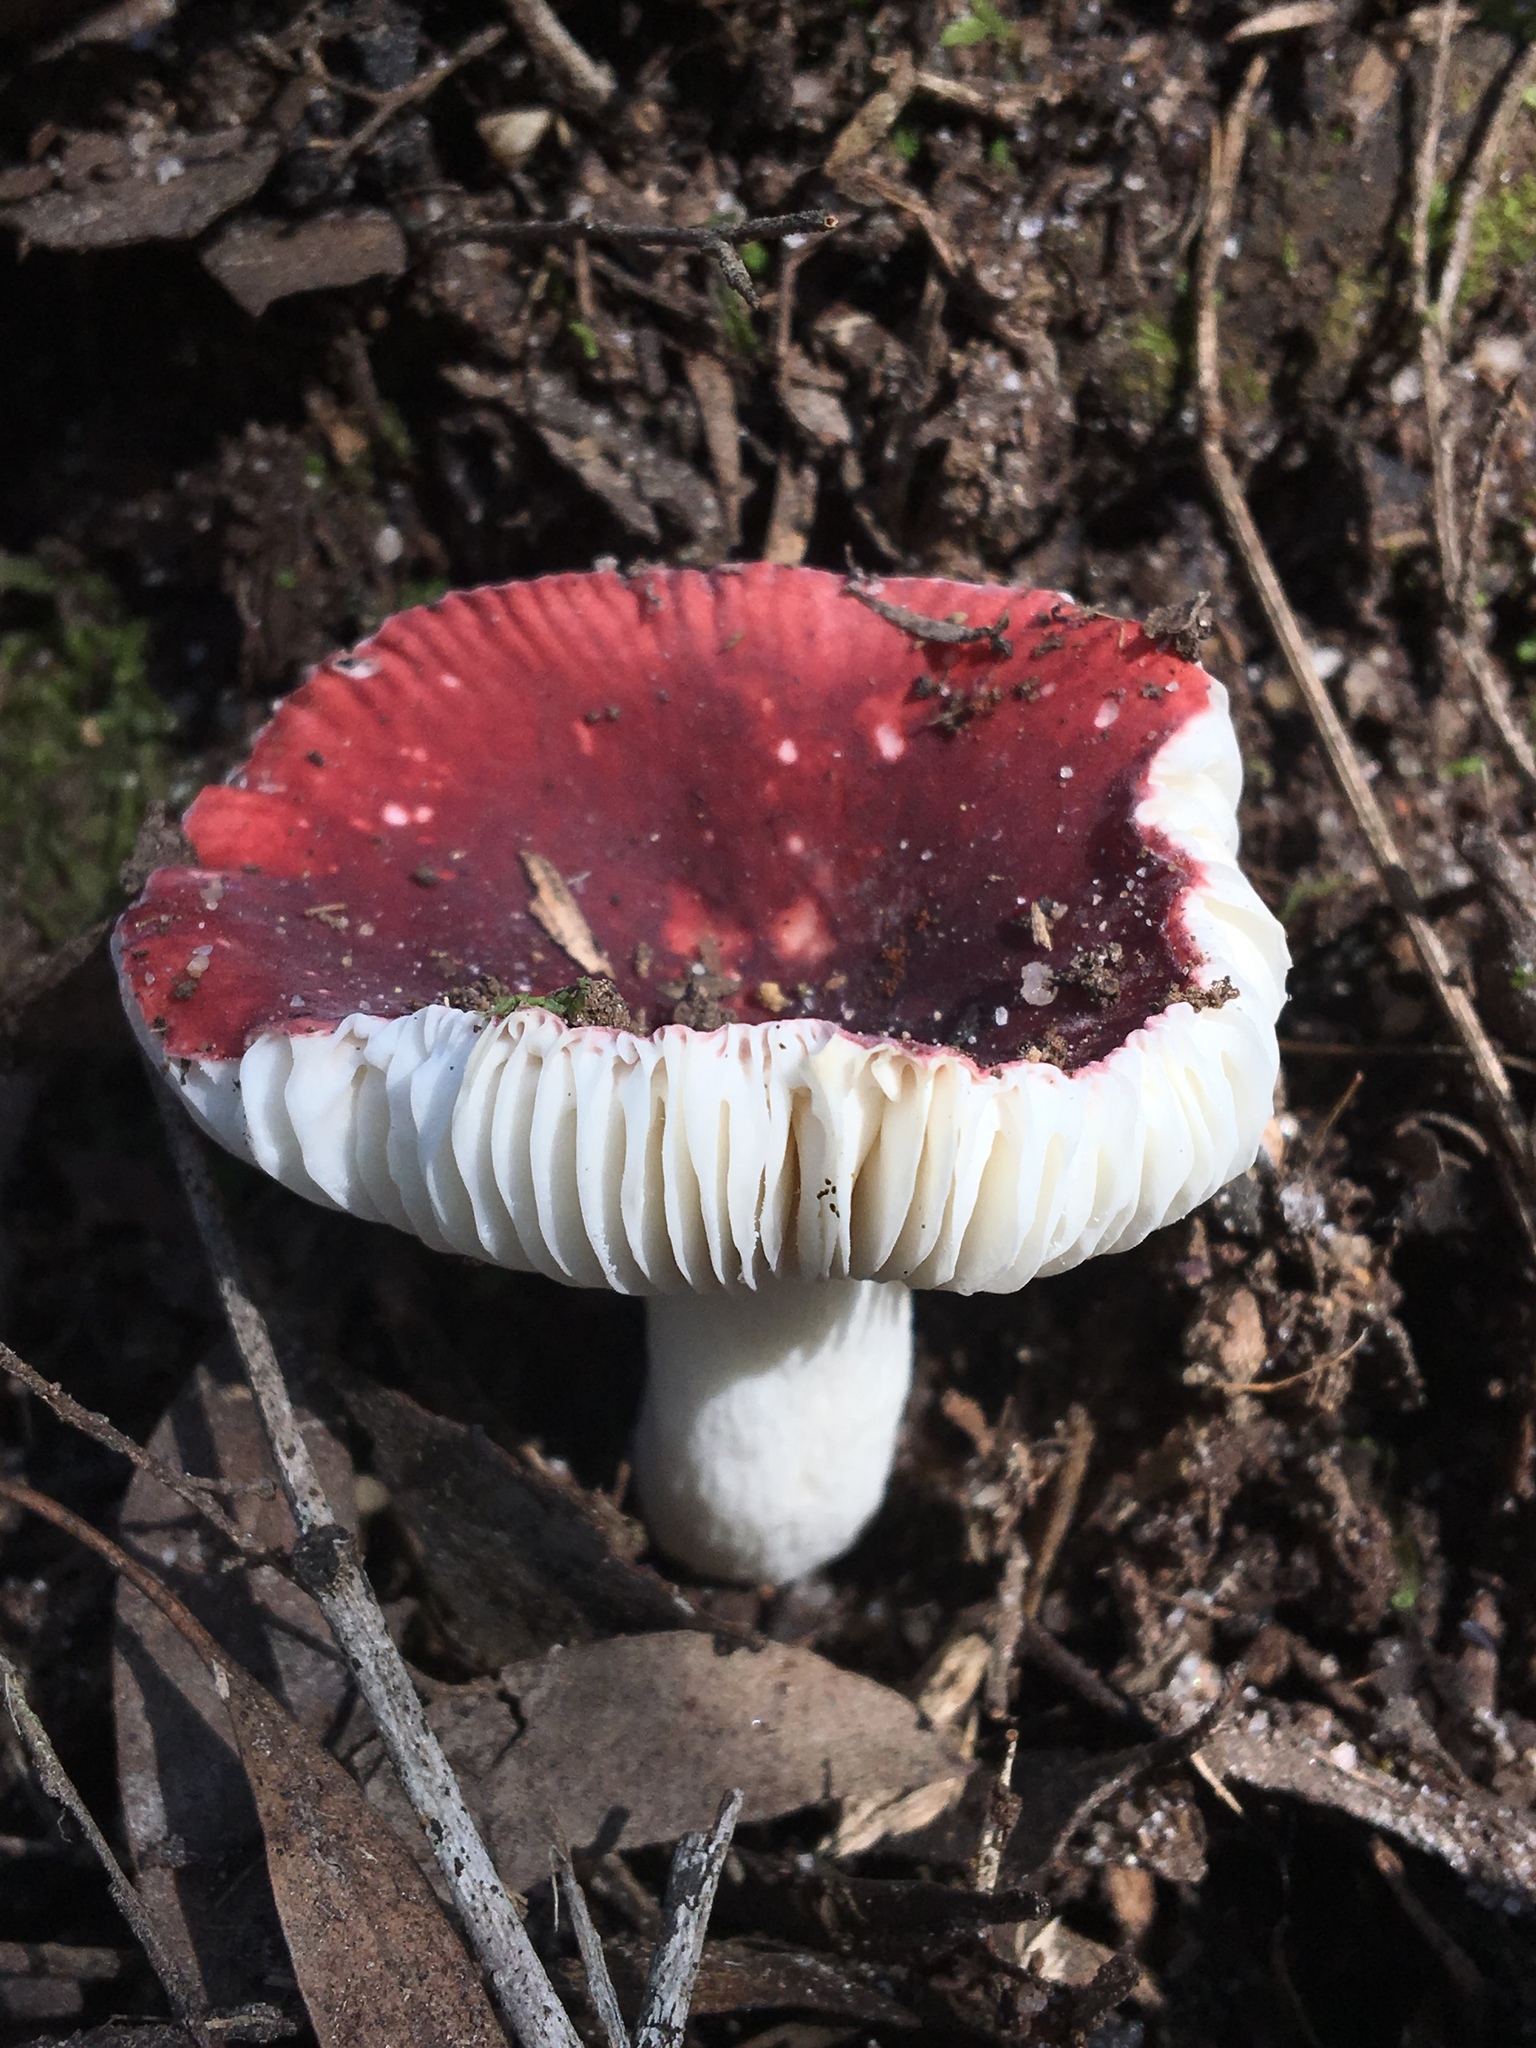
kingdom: Fungi
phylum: Basidiomycota
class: Agaricomycetes
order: Russulales
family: Russulaceae
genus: Russula
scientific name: Russula persanguinea
